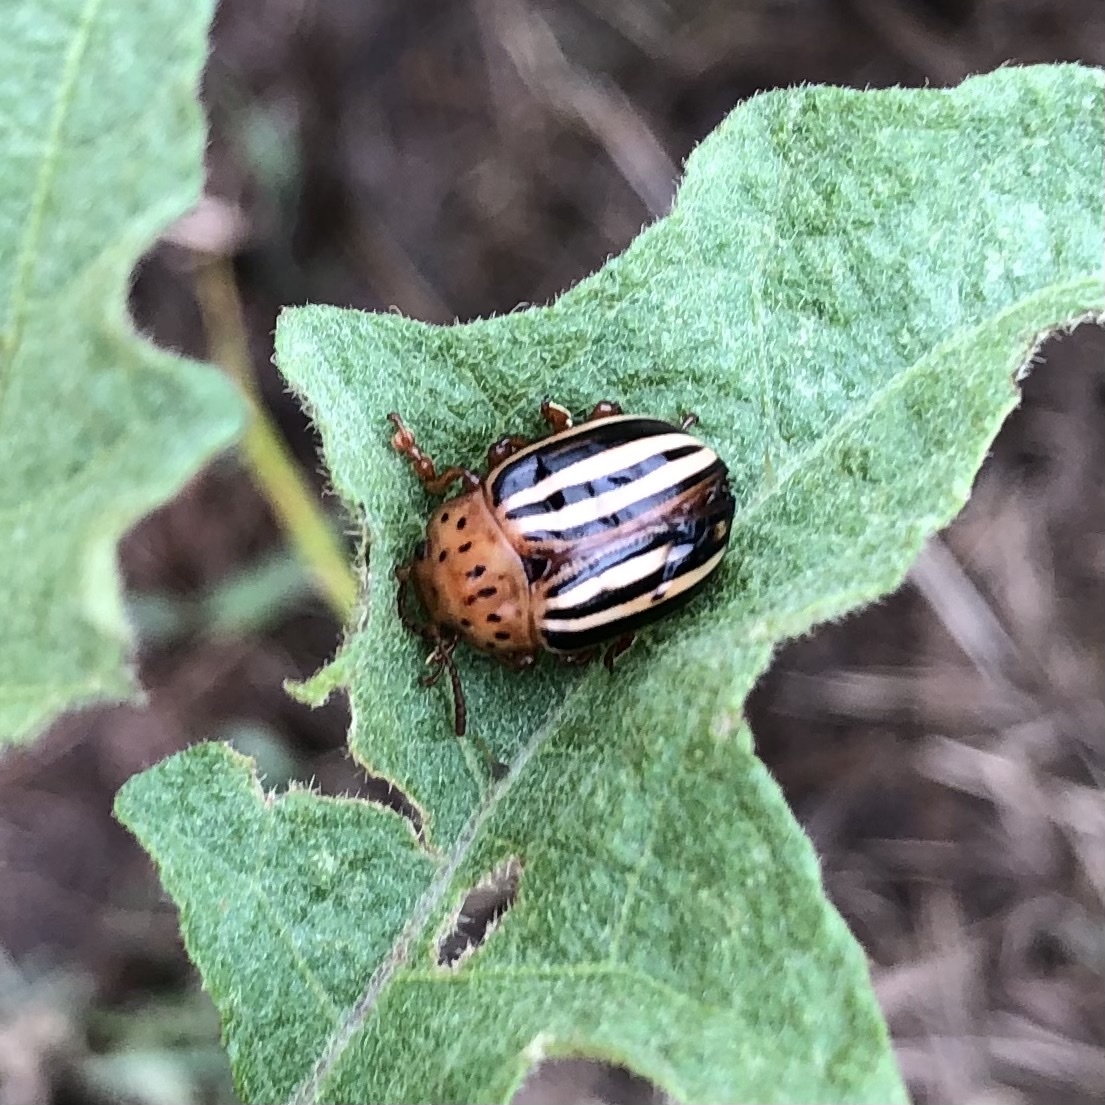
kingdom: Animalia
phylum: Arthropoda
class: Insecta
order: Coleoptera
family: Chrysomelidae
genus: Leptinotarsa
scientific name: Leptinotarsa juncta
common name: False potato beetle
